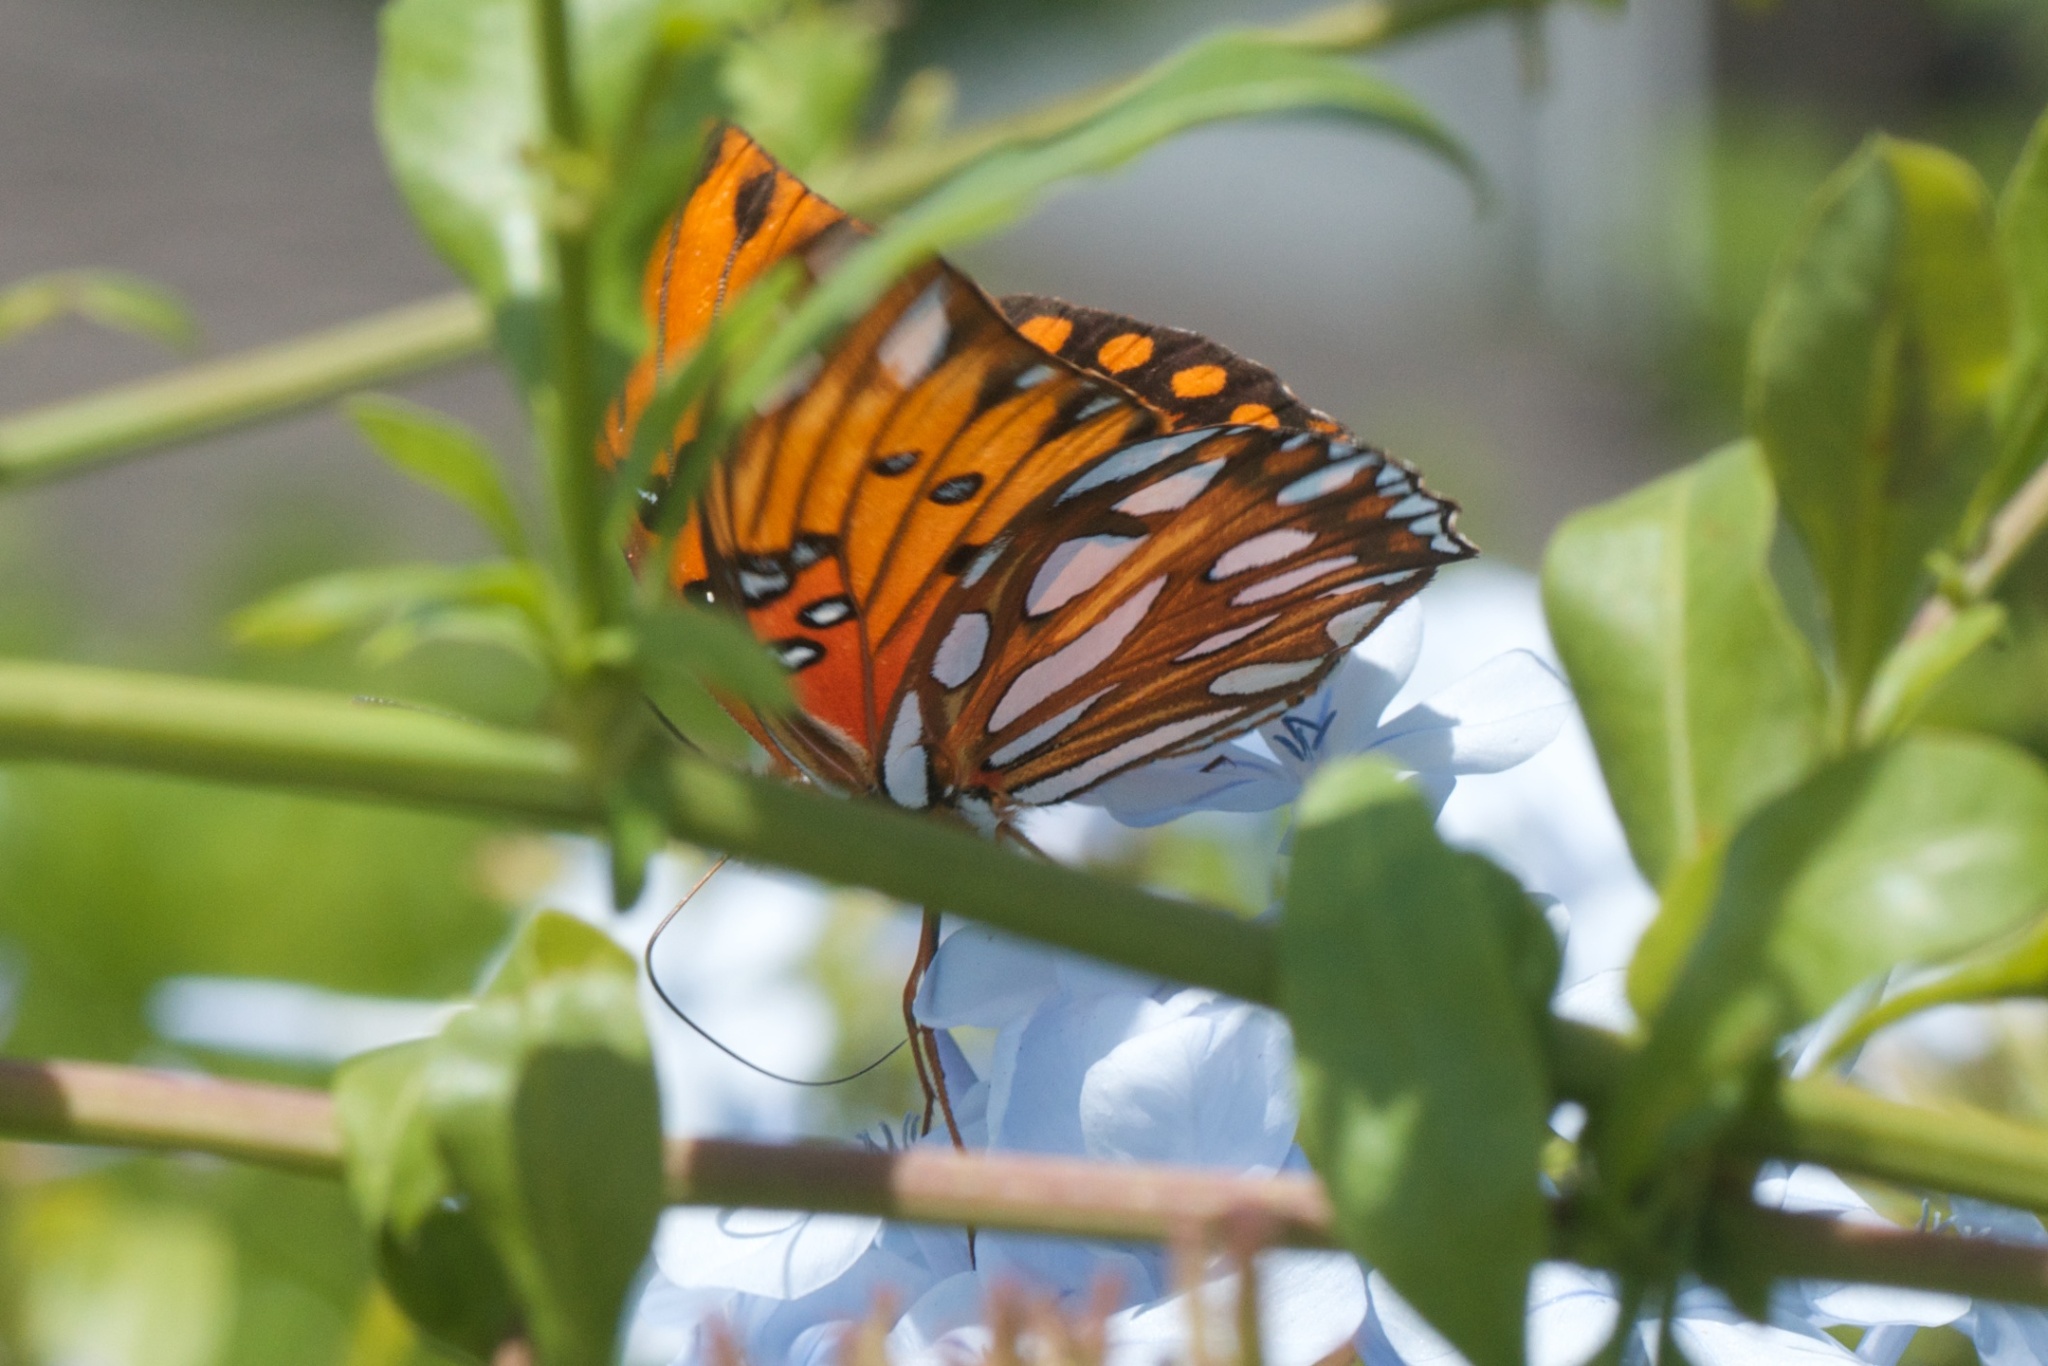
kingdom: Animalia
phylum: Arthropoda
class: Insecta
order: Lepidoptera
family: Nymphalidae
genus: Dione
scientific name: Dione vanillae
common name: Gulf fritillary
